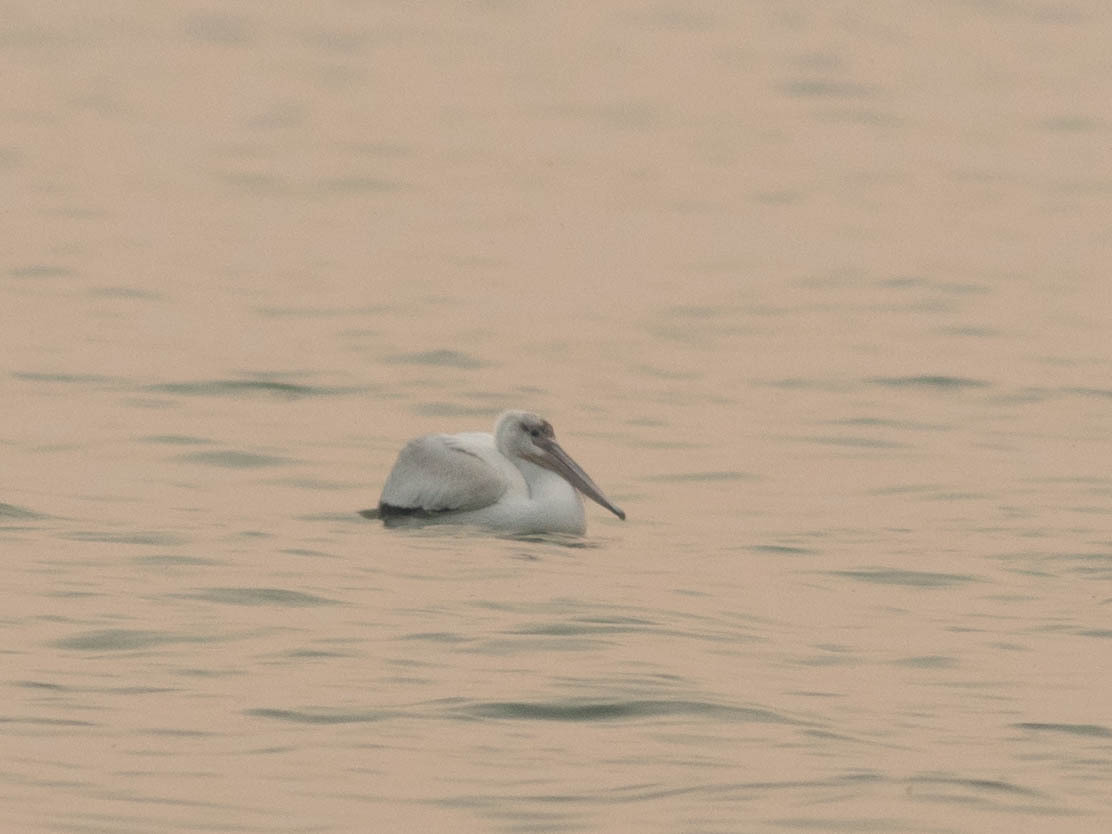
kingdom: Animalia
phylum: Chordata
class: Aves
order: Pelecaniformes
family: Pelecanidae
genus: Pelecanus
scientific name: Pelecanus erythrorhynchos
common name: American white pelican
